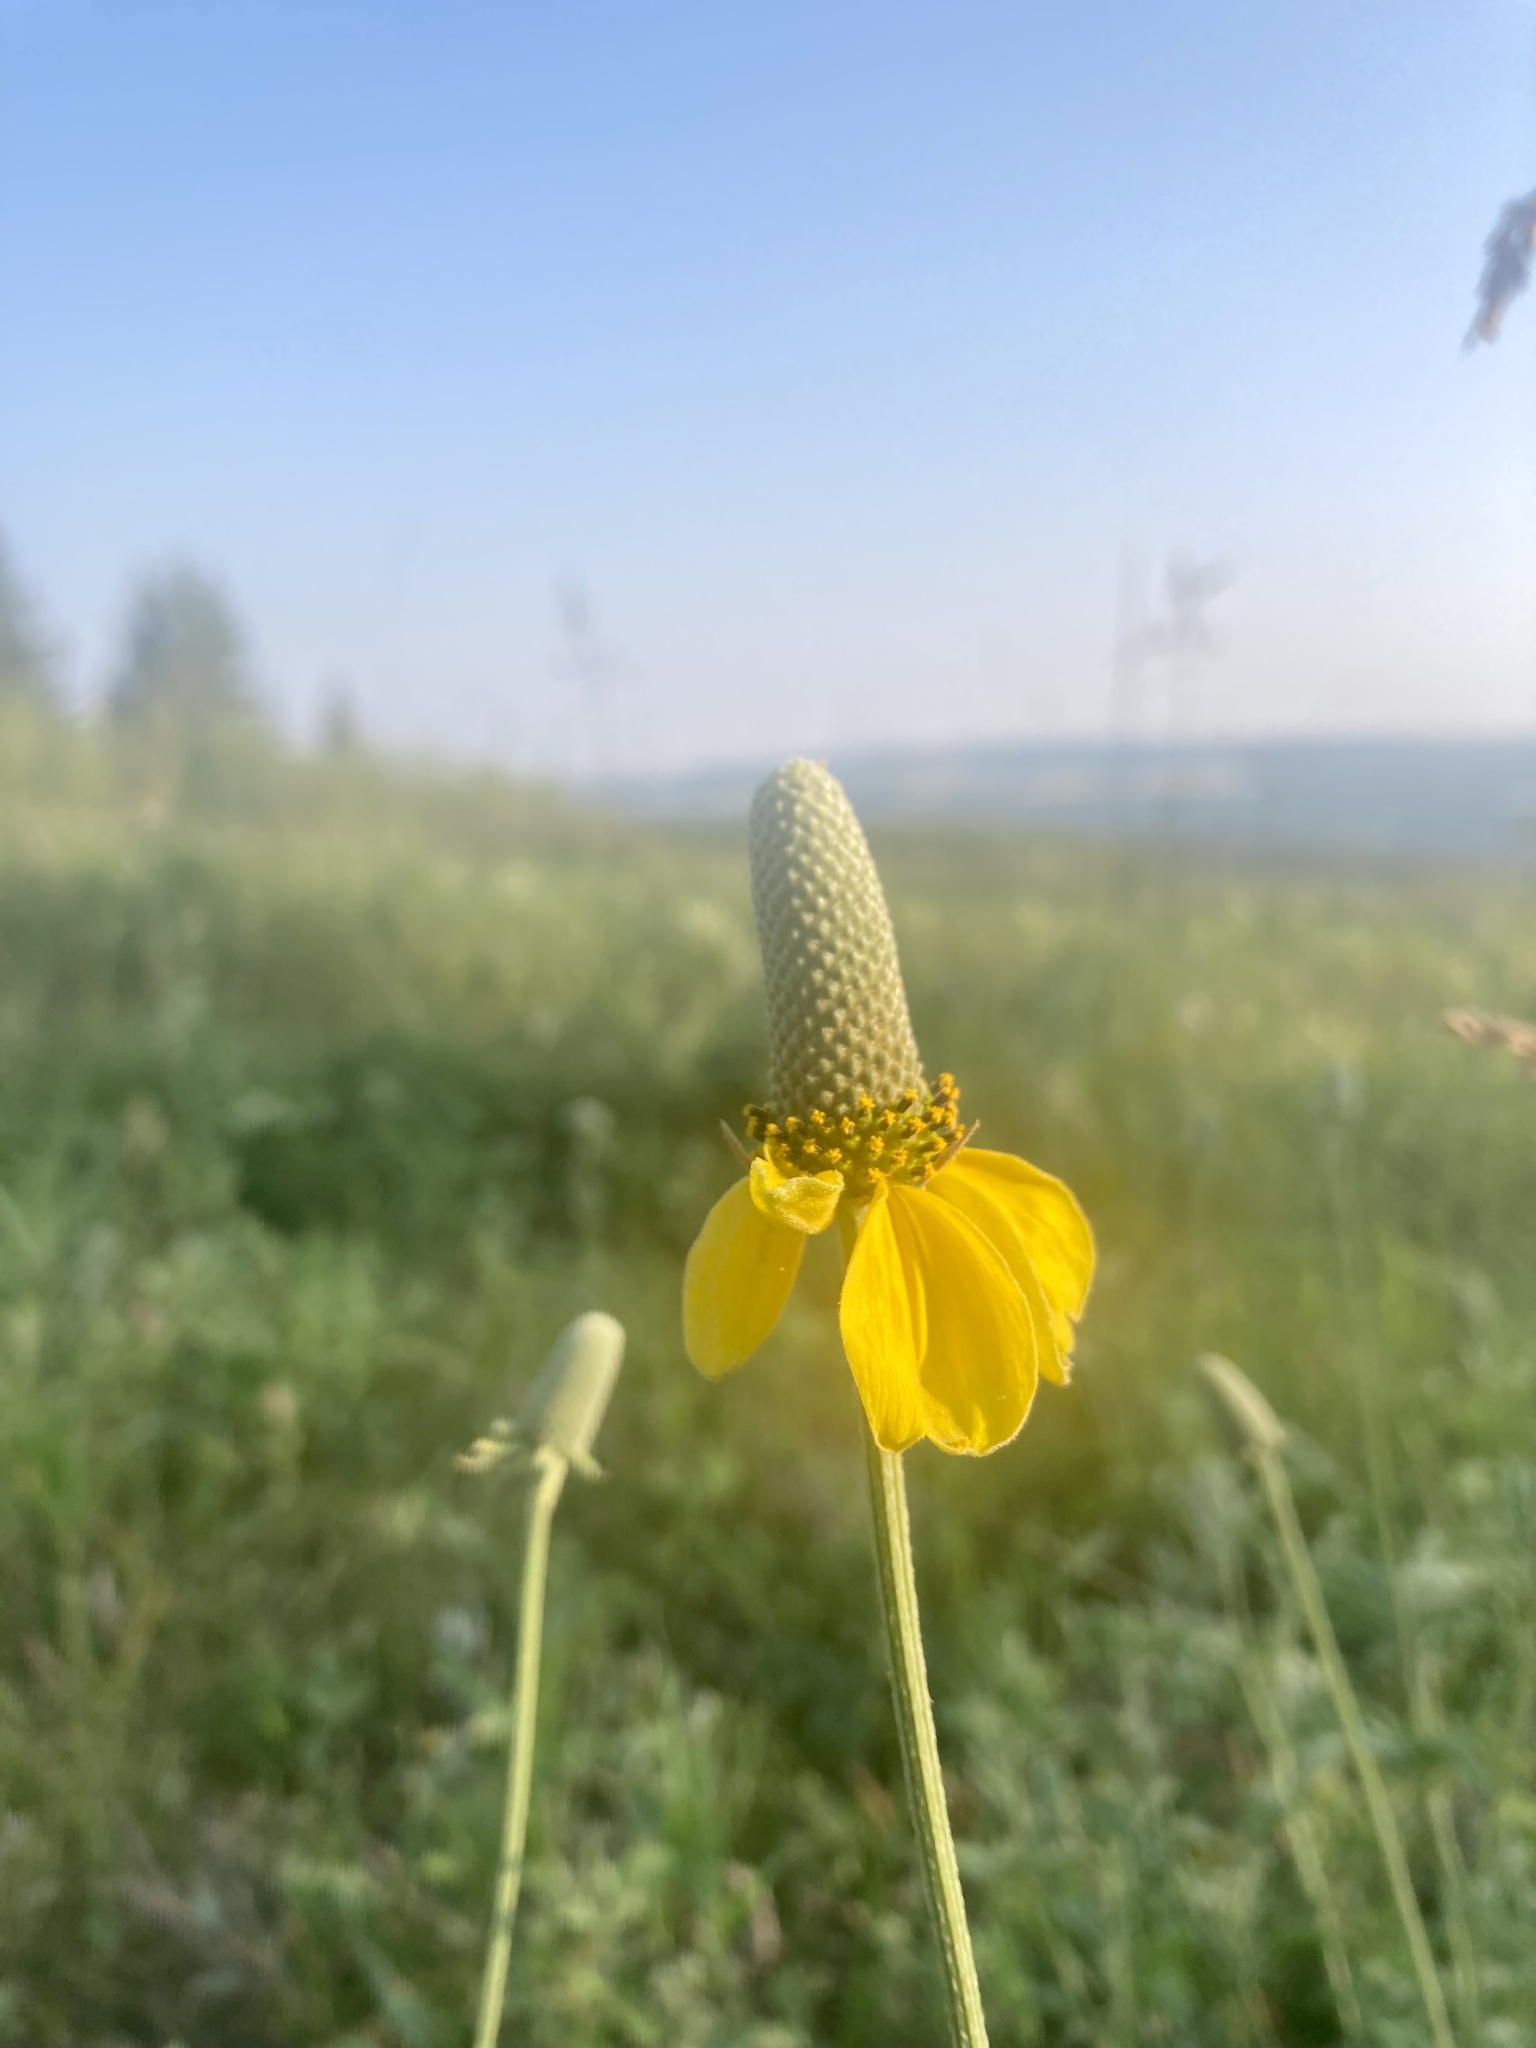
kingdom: Plantae
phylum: Tracheophyta
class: Magnoliopsida
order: Asterales
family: Asteraceae
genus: Ratibida
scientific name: Ratibida columnifera
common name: Prairie coneflower
